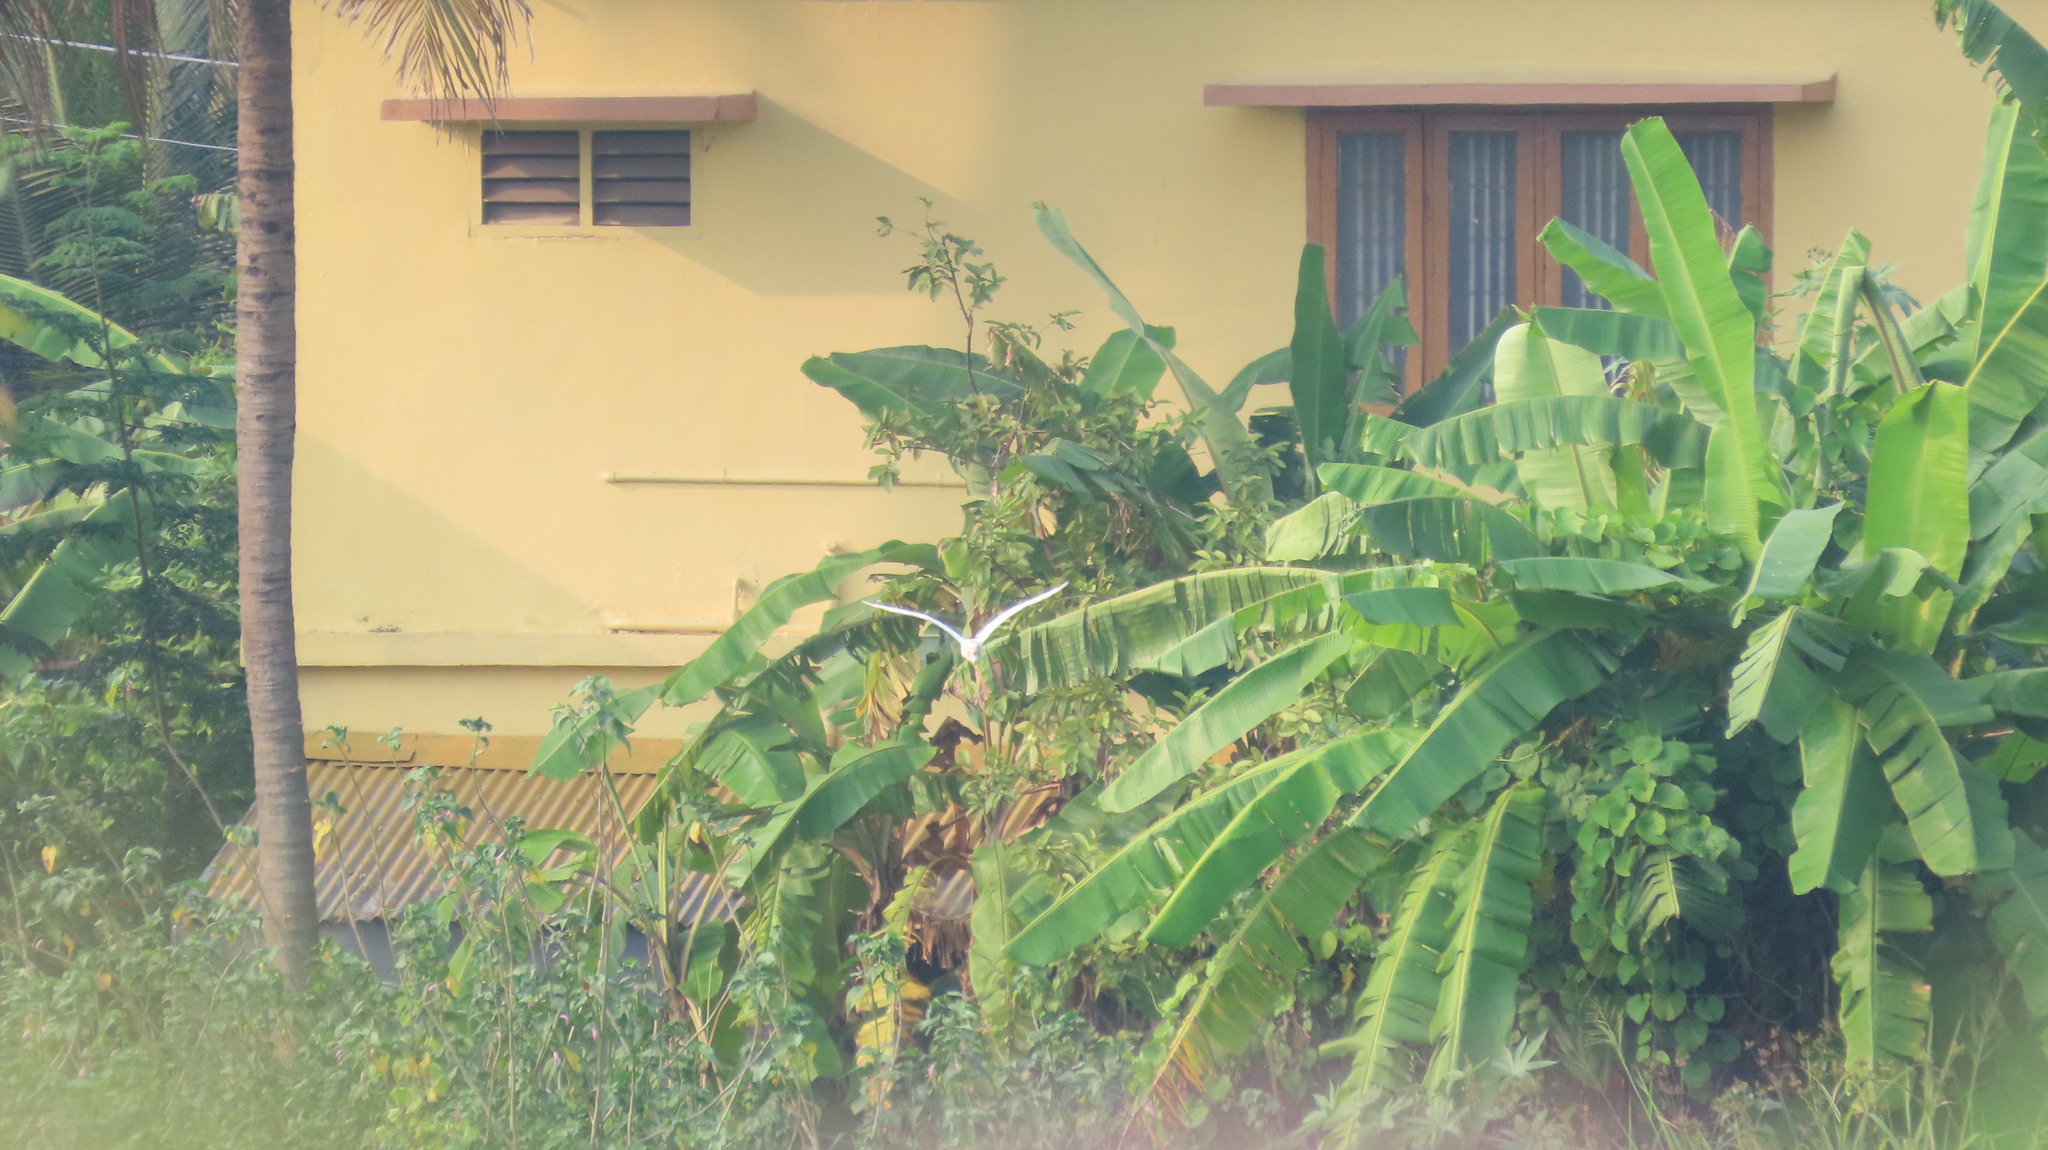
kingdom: Animalia
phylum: Chordata
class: Aves
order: Pelecaniformes
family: Ardeidae
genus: Bubulcus
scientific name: Bubulcus coromandus
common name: Eastern cattle egret
